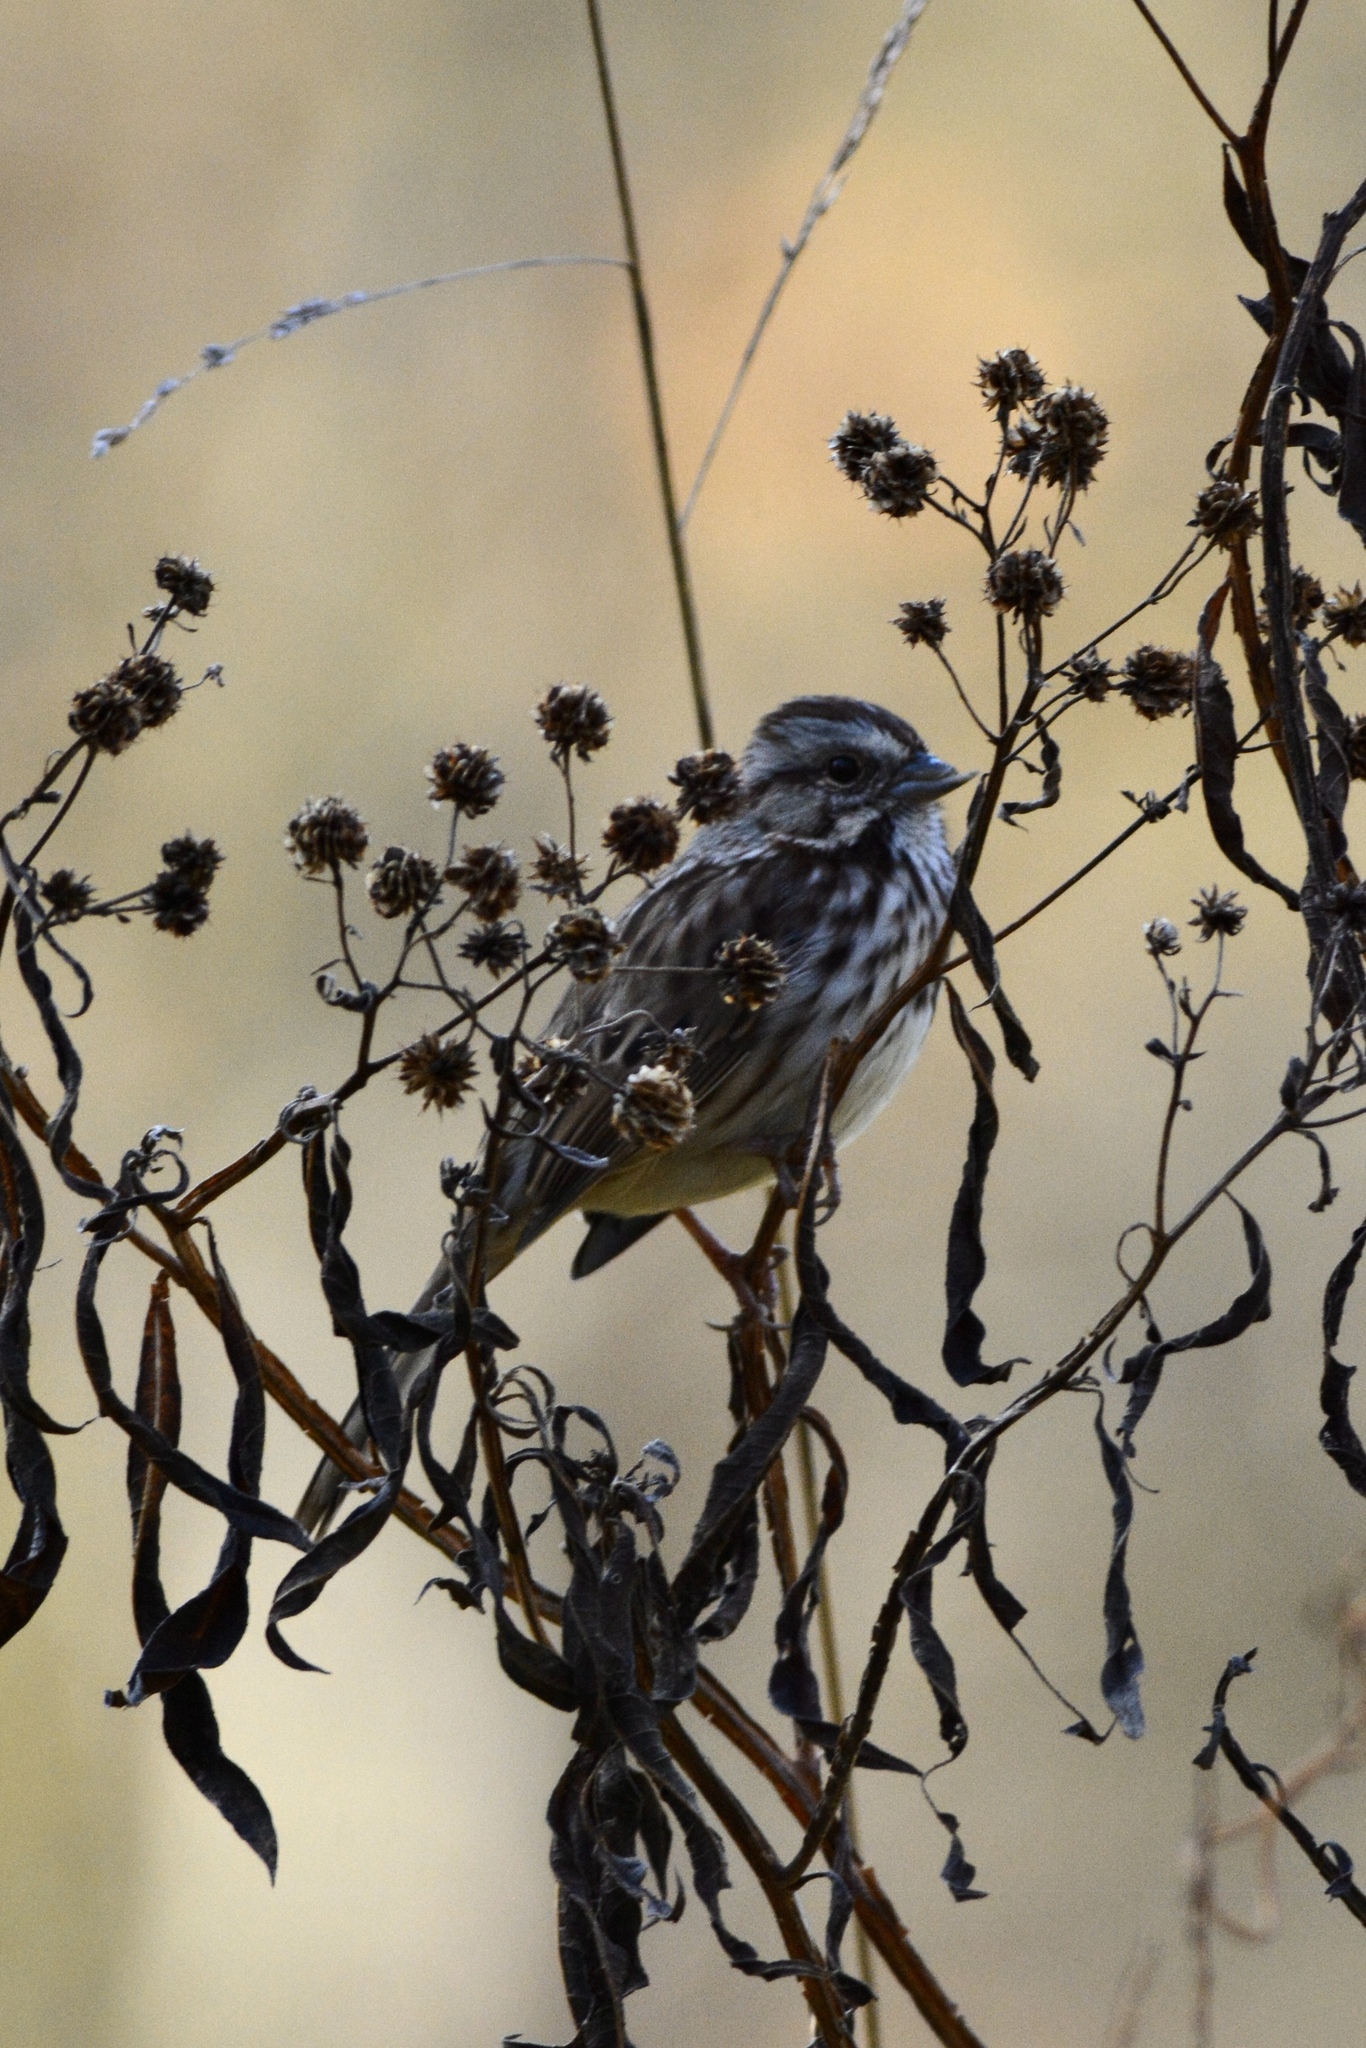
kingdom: Animalia
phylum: Chordata
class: Aves
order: Passeriformes
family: Passerellidae
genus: Melospiza
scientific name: Melospiza melodia
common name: Song sparrow
